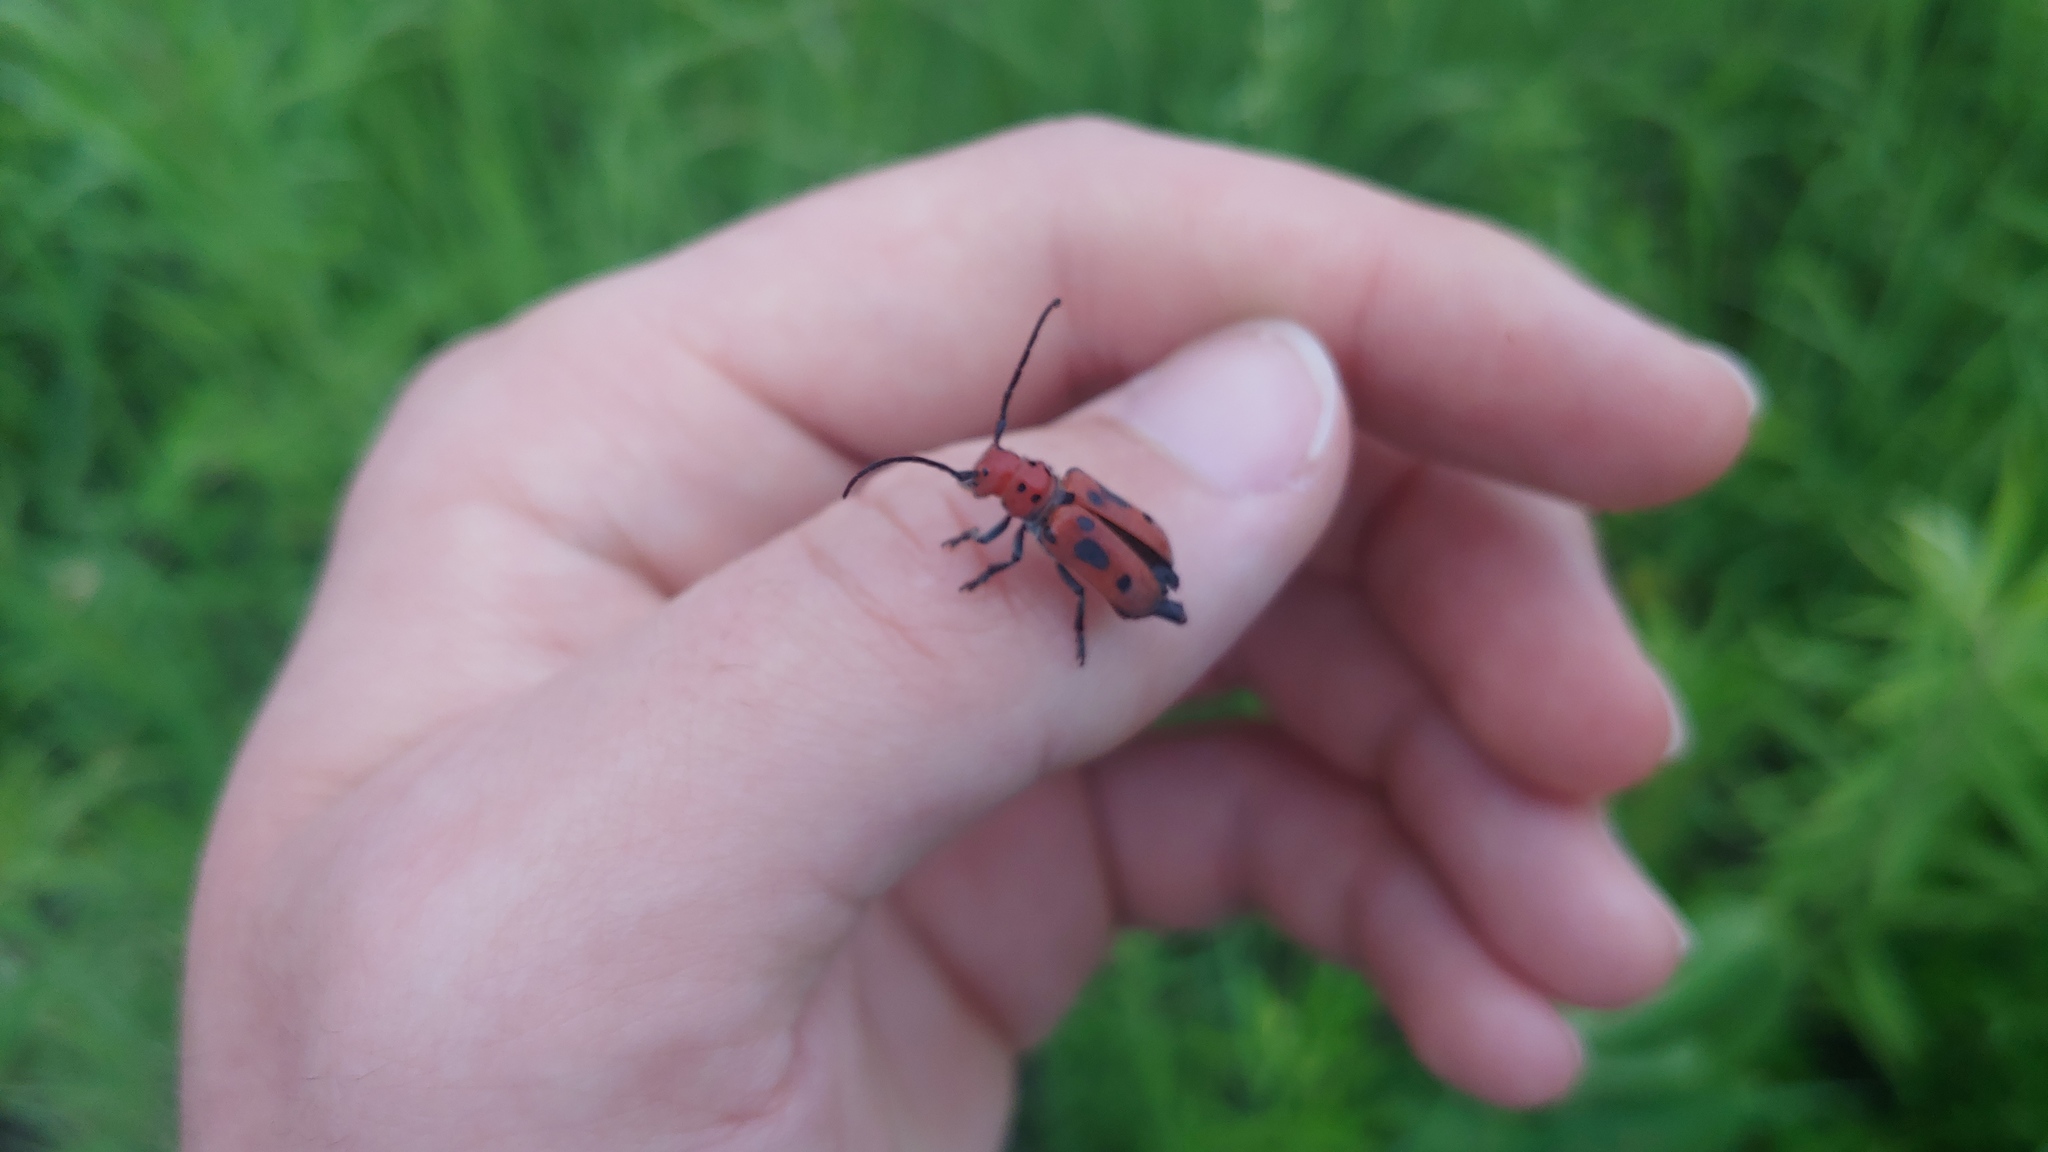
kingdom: Animalia
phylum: Arthropoda
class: Insecta
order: Coleoptera
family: Cerambycidae
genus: Tetraopes
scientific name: Tetraopes tetrophthalmus
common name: Red milkweed beetle
